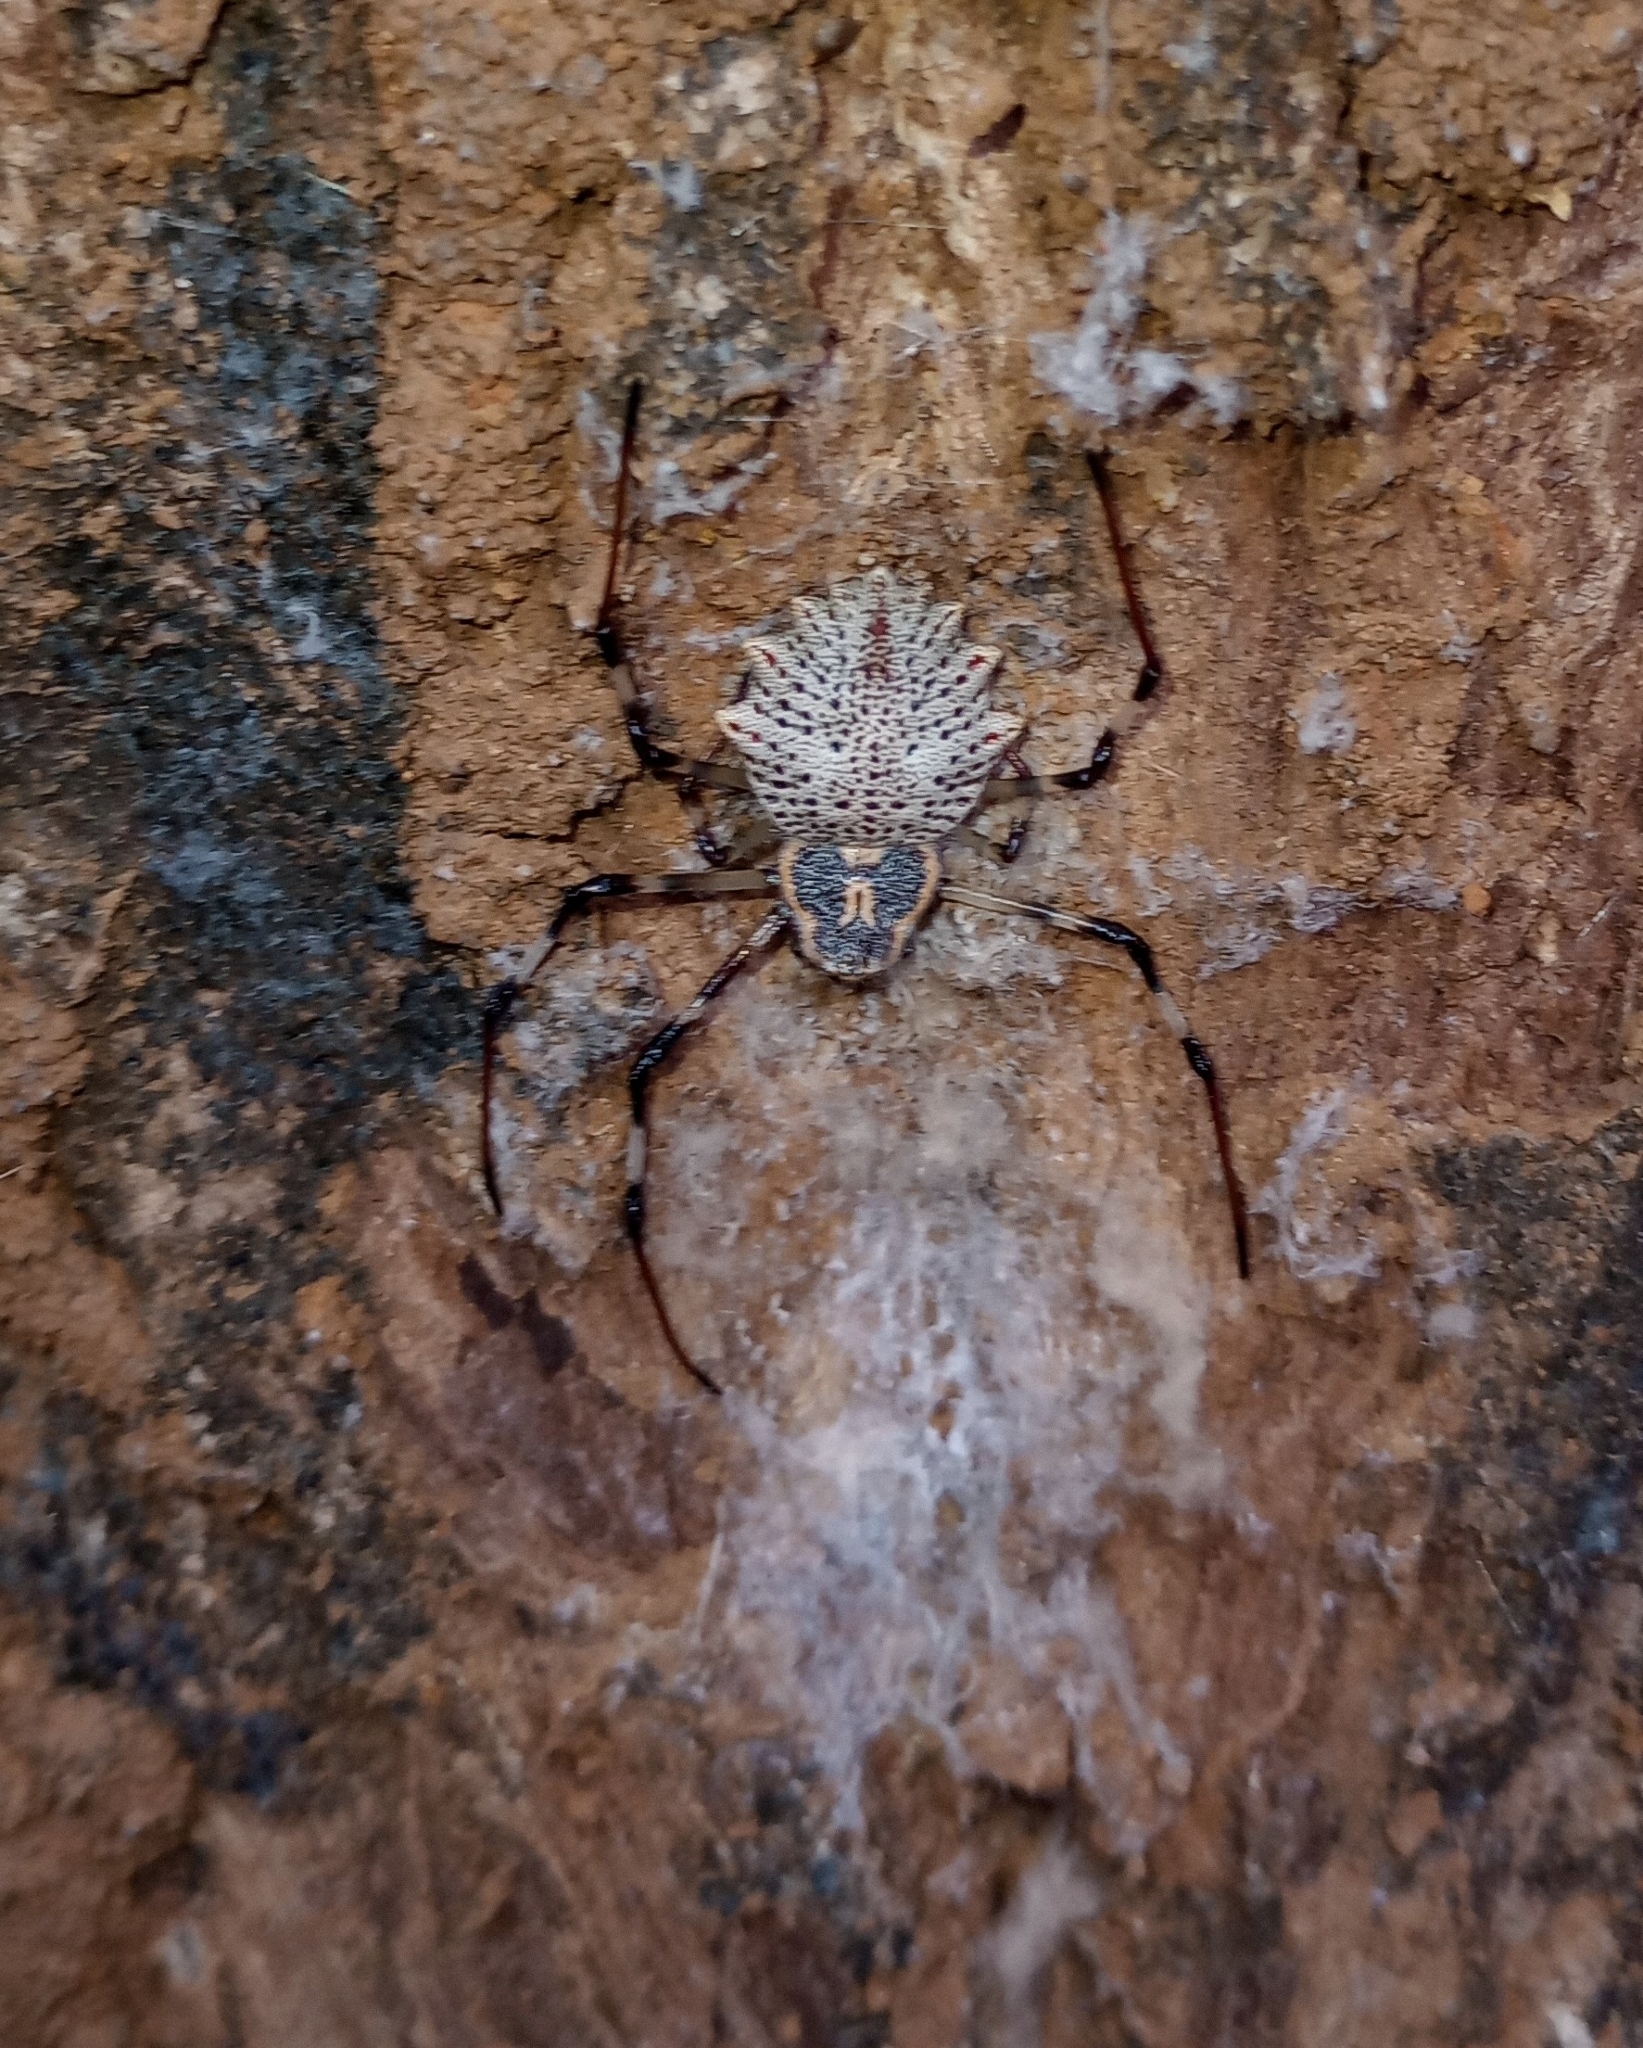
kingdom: Animalia
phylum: Arthropoda
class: Arachnida
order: Araneae
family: Araneidae
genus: Herennia
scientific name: Herennia multipuncta
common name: Spotted coin spider
